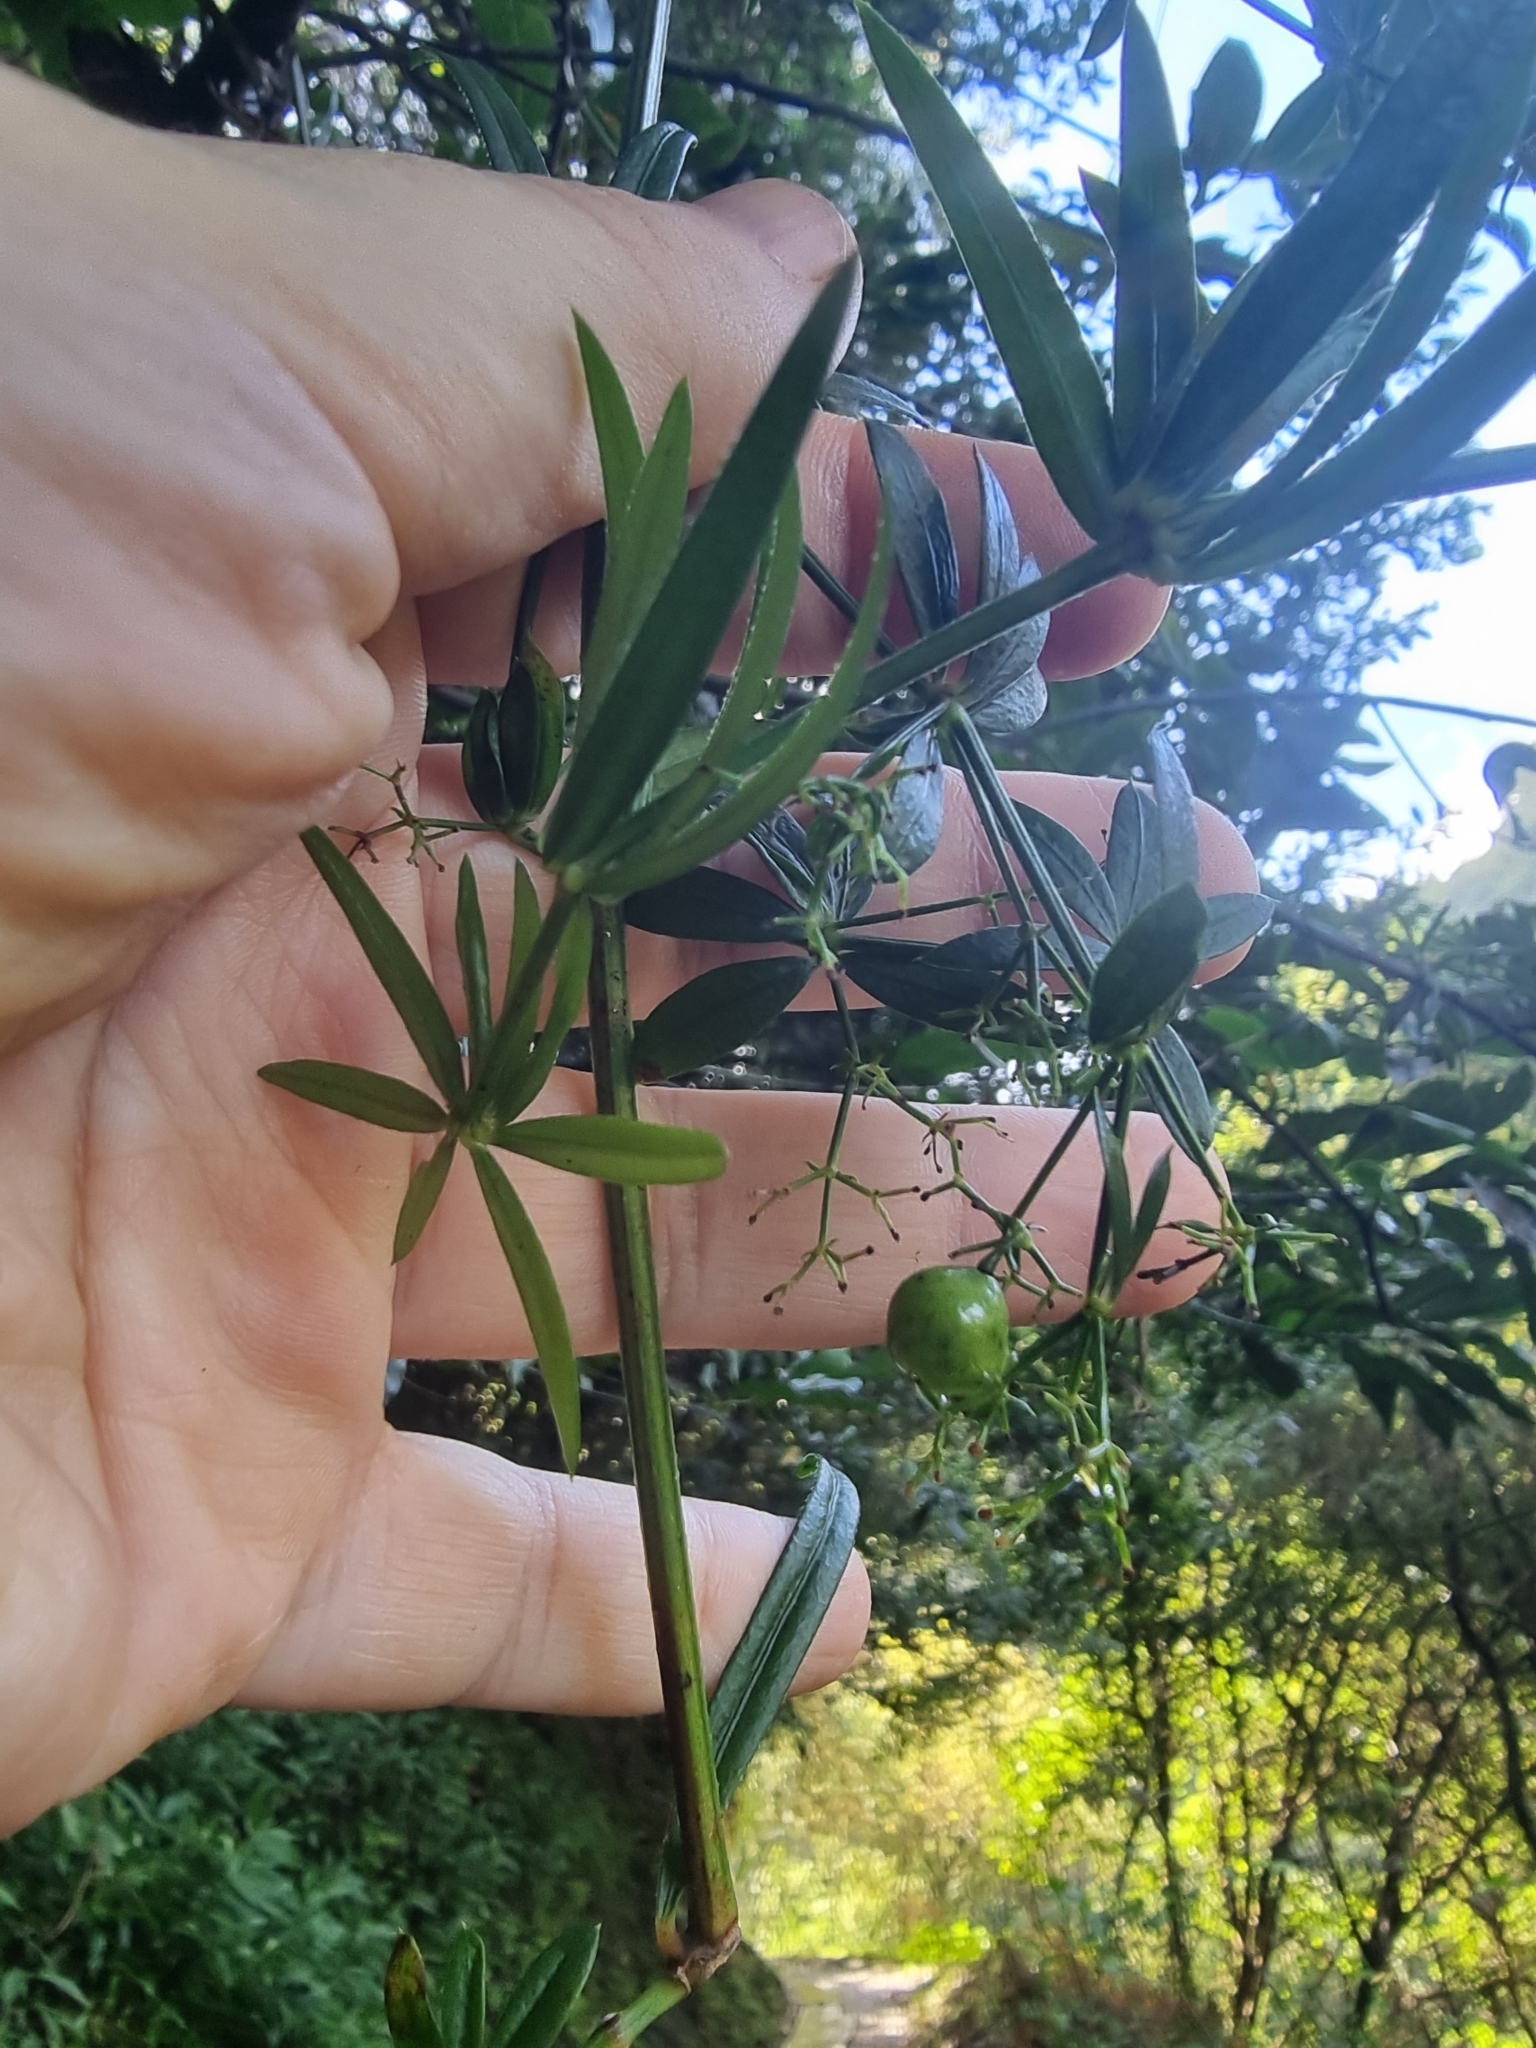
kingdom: Plantae
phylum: Tracheophyta
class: Magnoliopsida
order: Gentianales
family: Rubiaceae
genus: Rubia
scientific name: Rubia occidens
